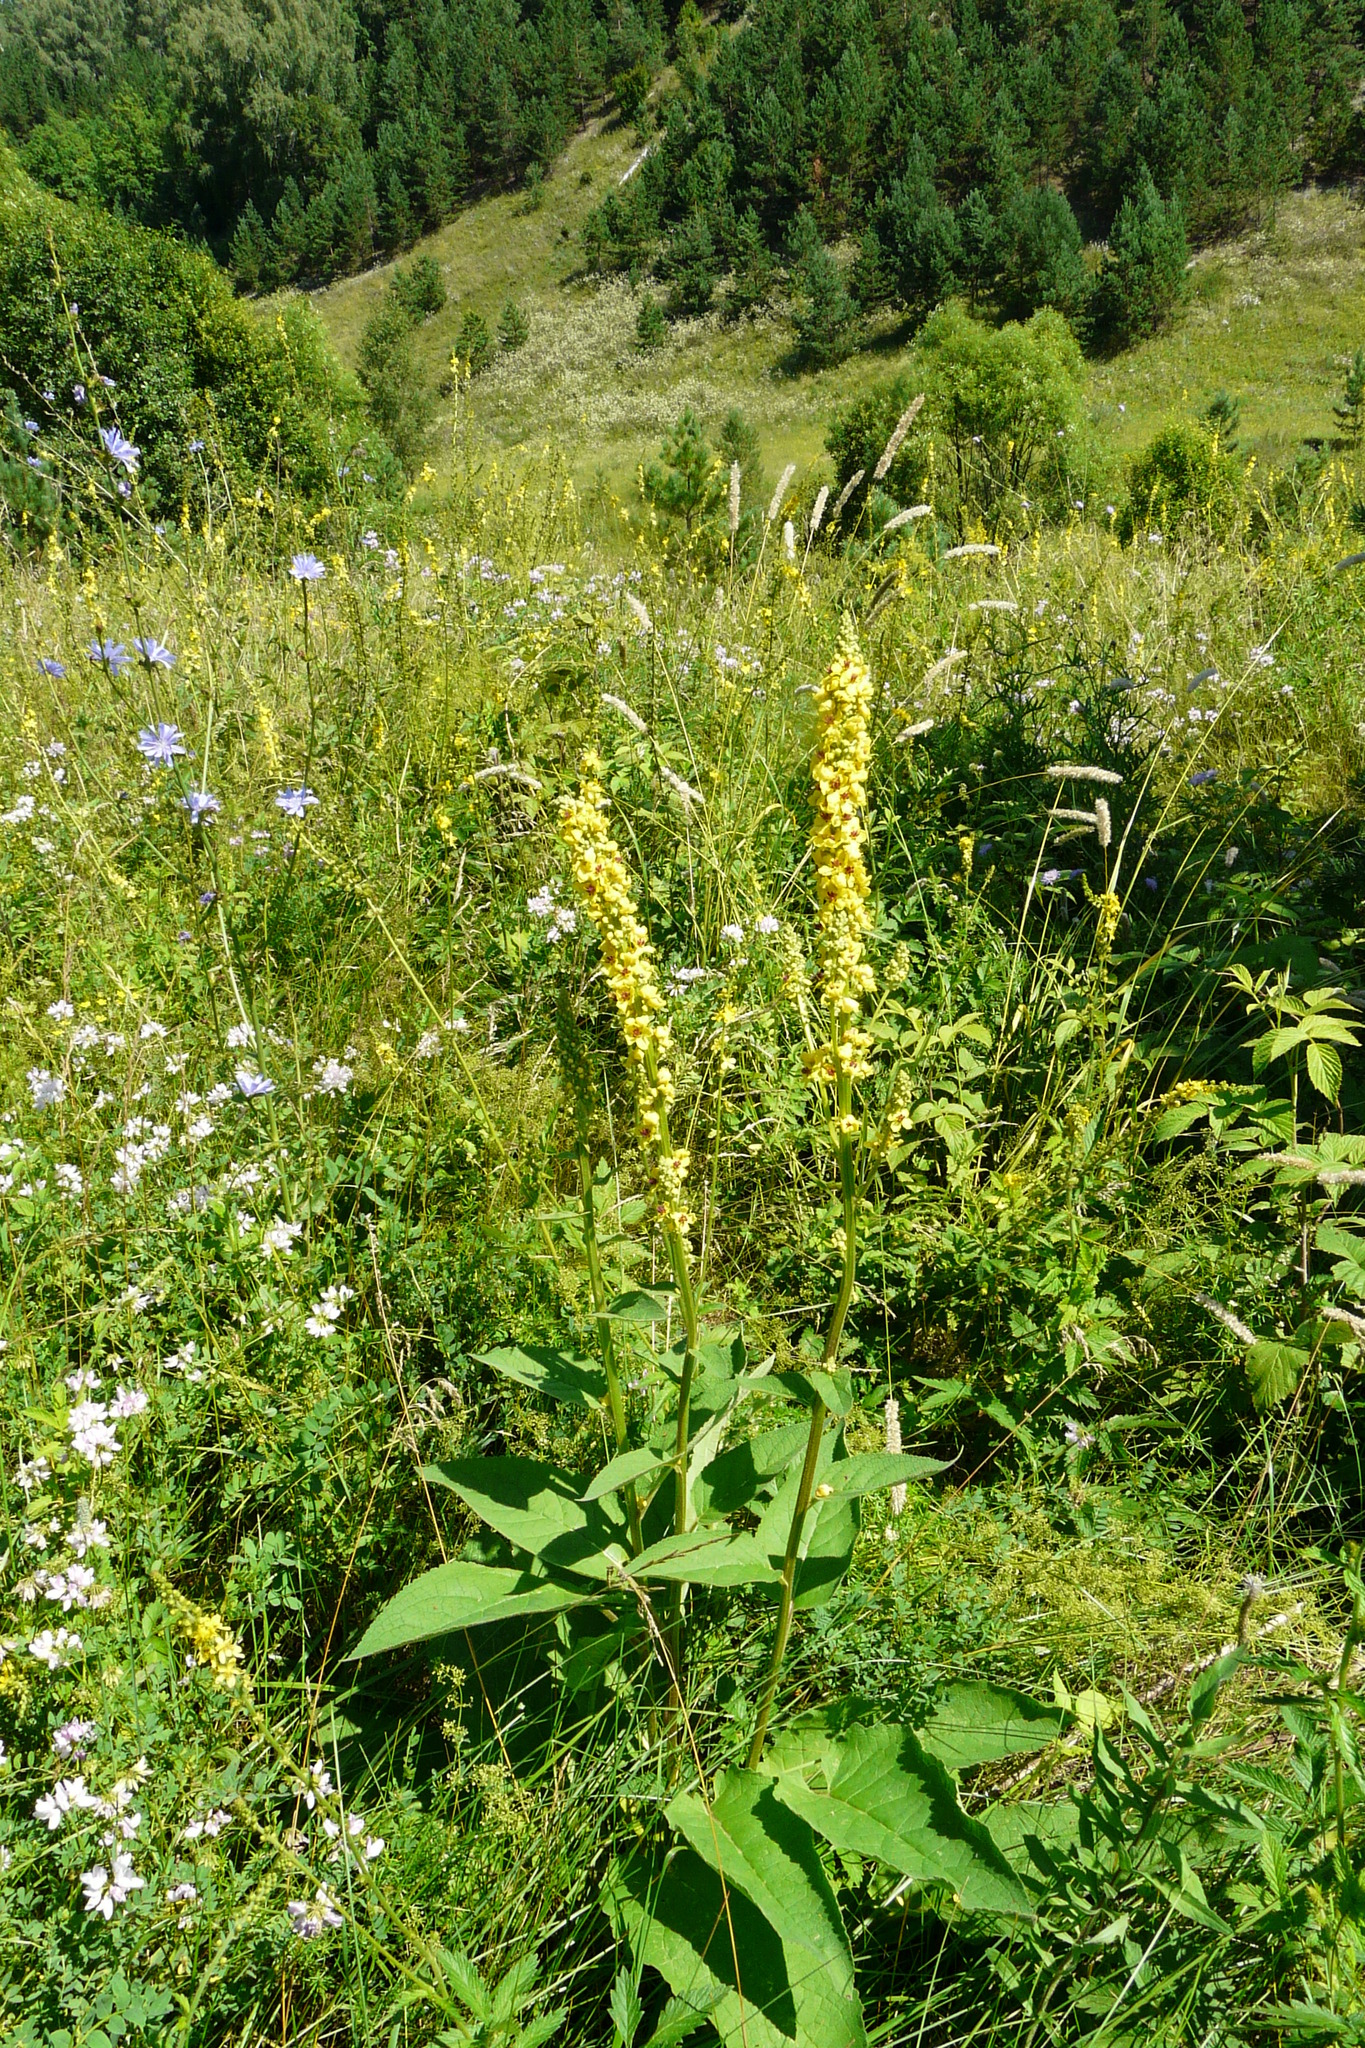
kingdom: Plantae
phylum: Tracheophyta
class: Magnoliopsida
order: Lamiales
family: Scrophulariaceae
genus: Verbascum
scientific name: Verbascum nigrum
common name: Dark mullein
